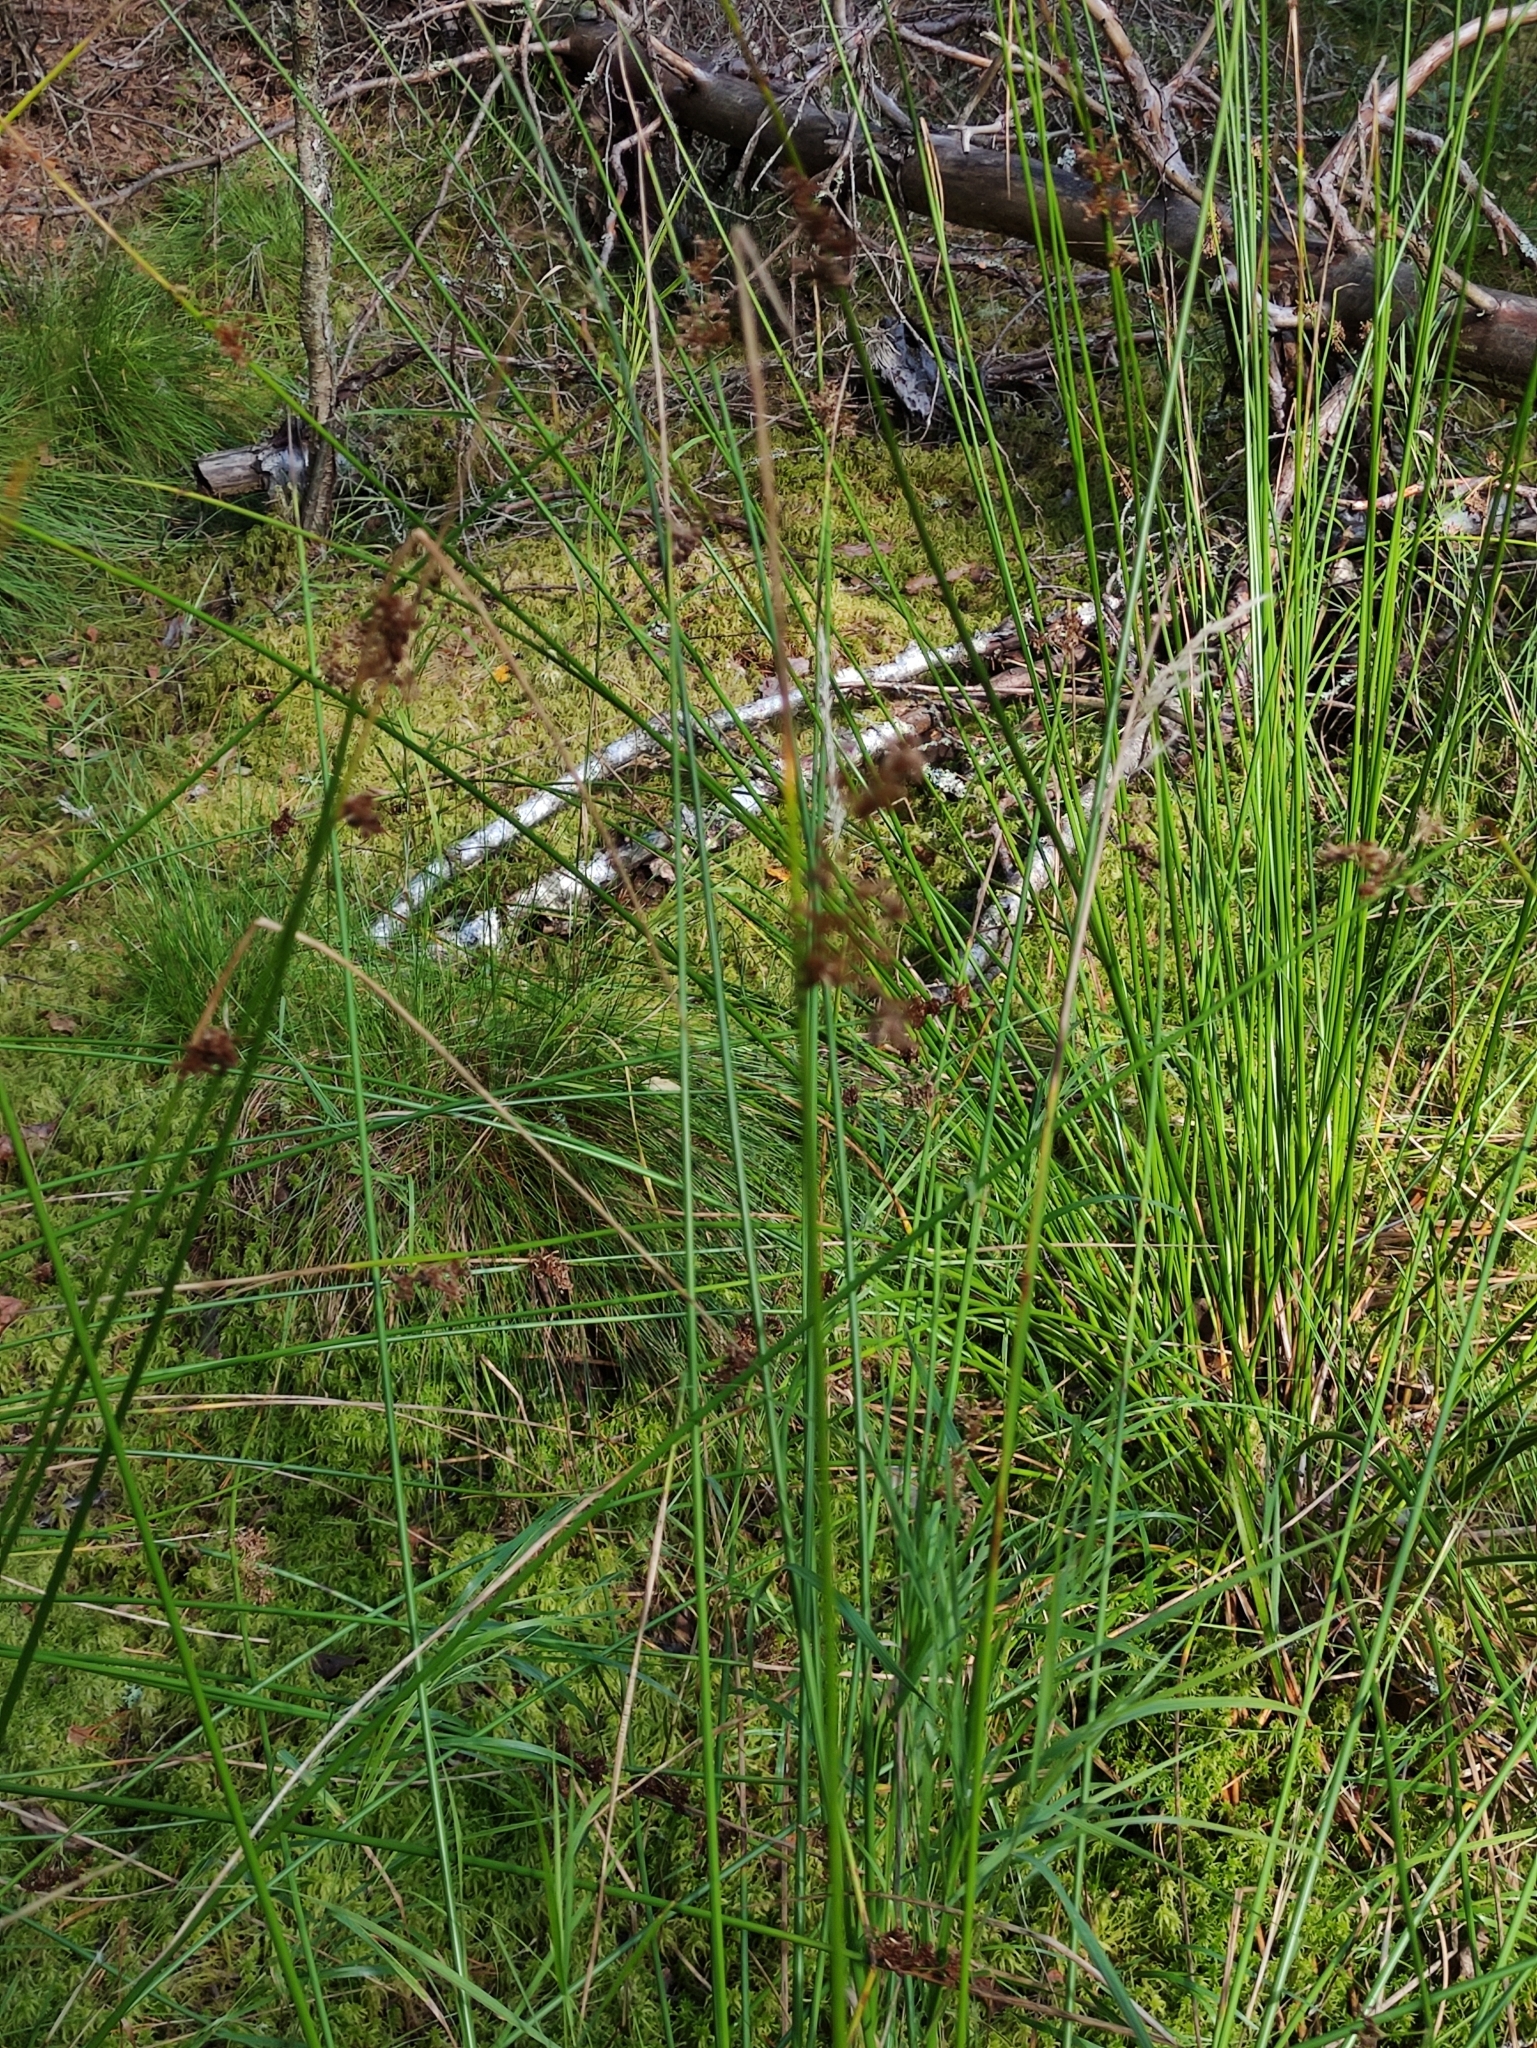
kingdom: Plantae
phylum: Tracheophyta
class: Liliopsida
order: Poales
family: Juncaceae
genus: Juncus
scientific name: Juncus effusus
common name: Soft rush
